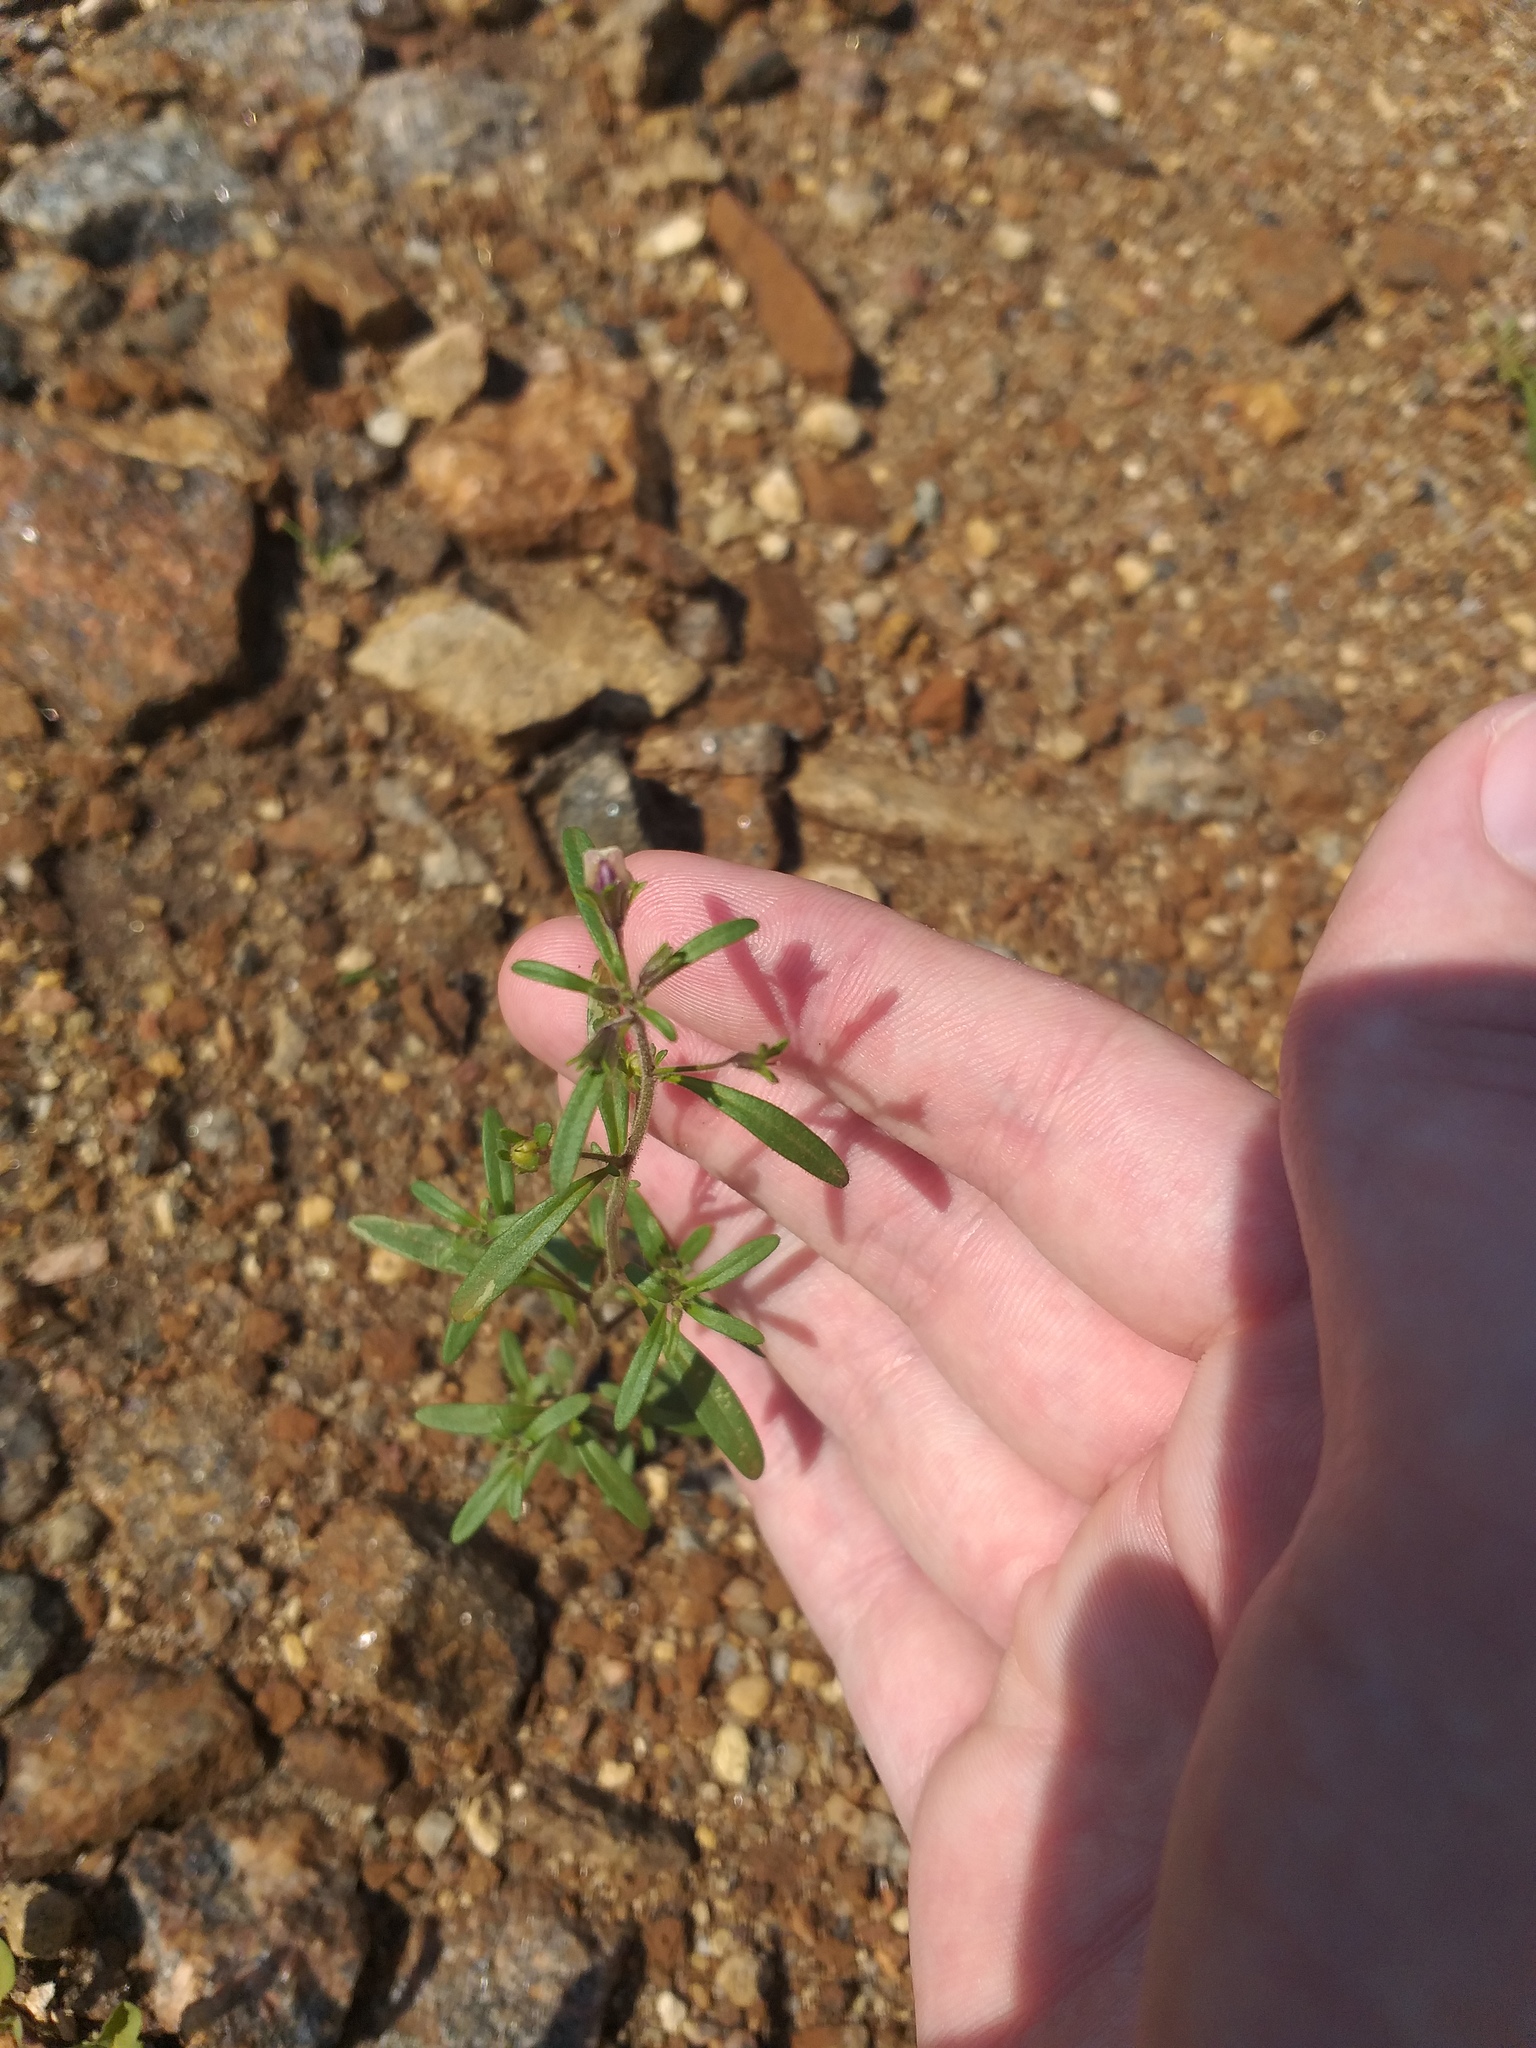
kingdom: Plantae
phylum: Tracheophyta
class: Magnoliopsida
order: Lamiales
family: Plantaginaceae
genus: Chaenorhinum
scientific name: Chaenorhinum minus
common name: Dwarf snapdragon
